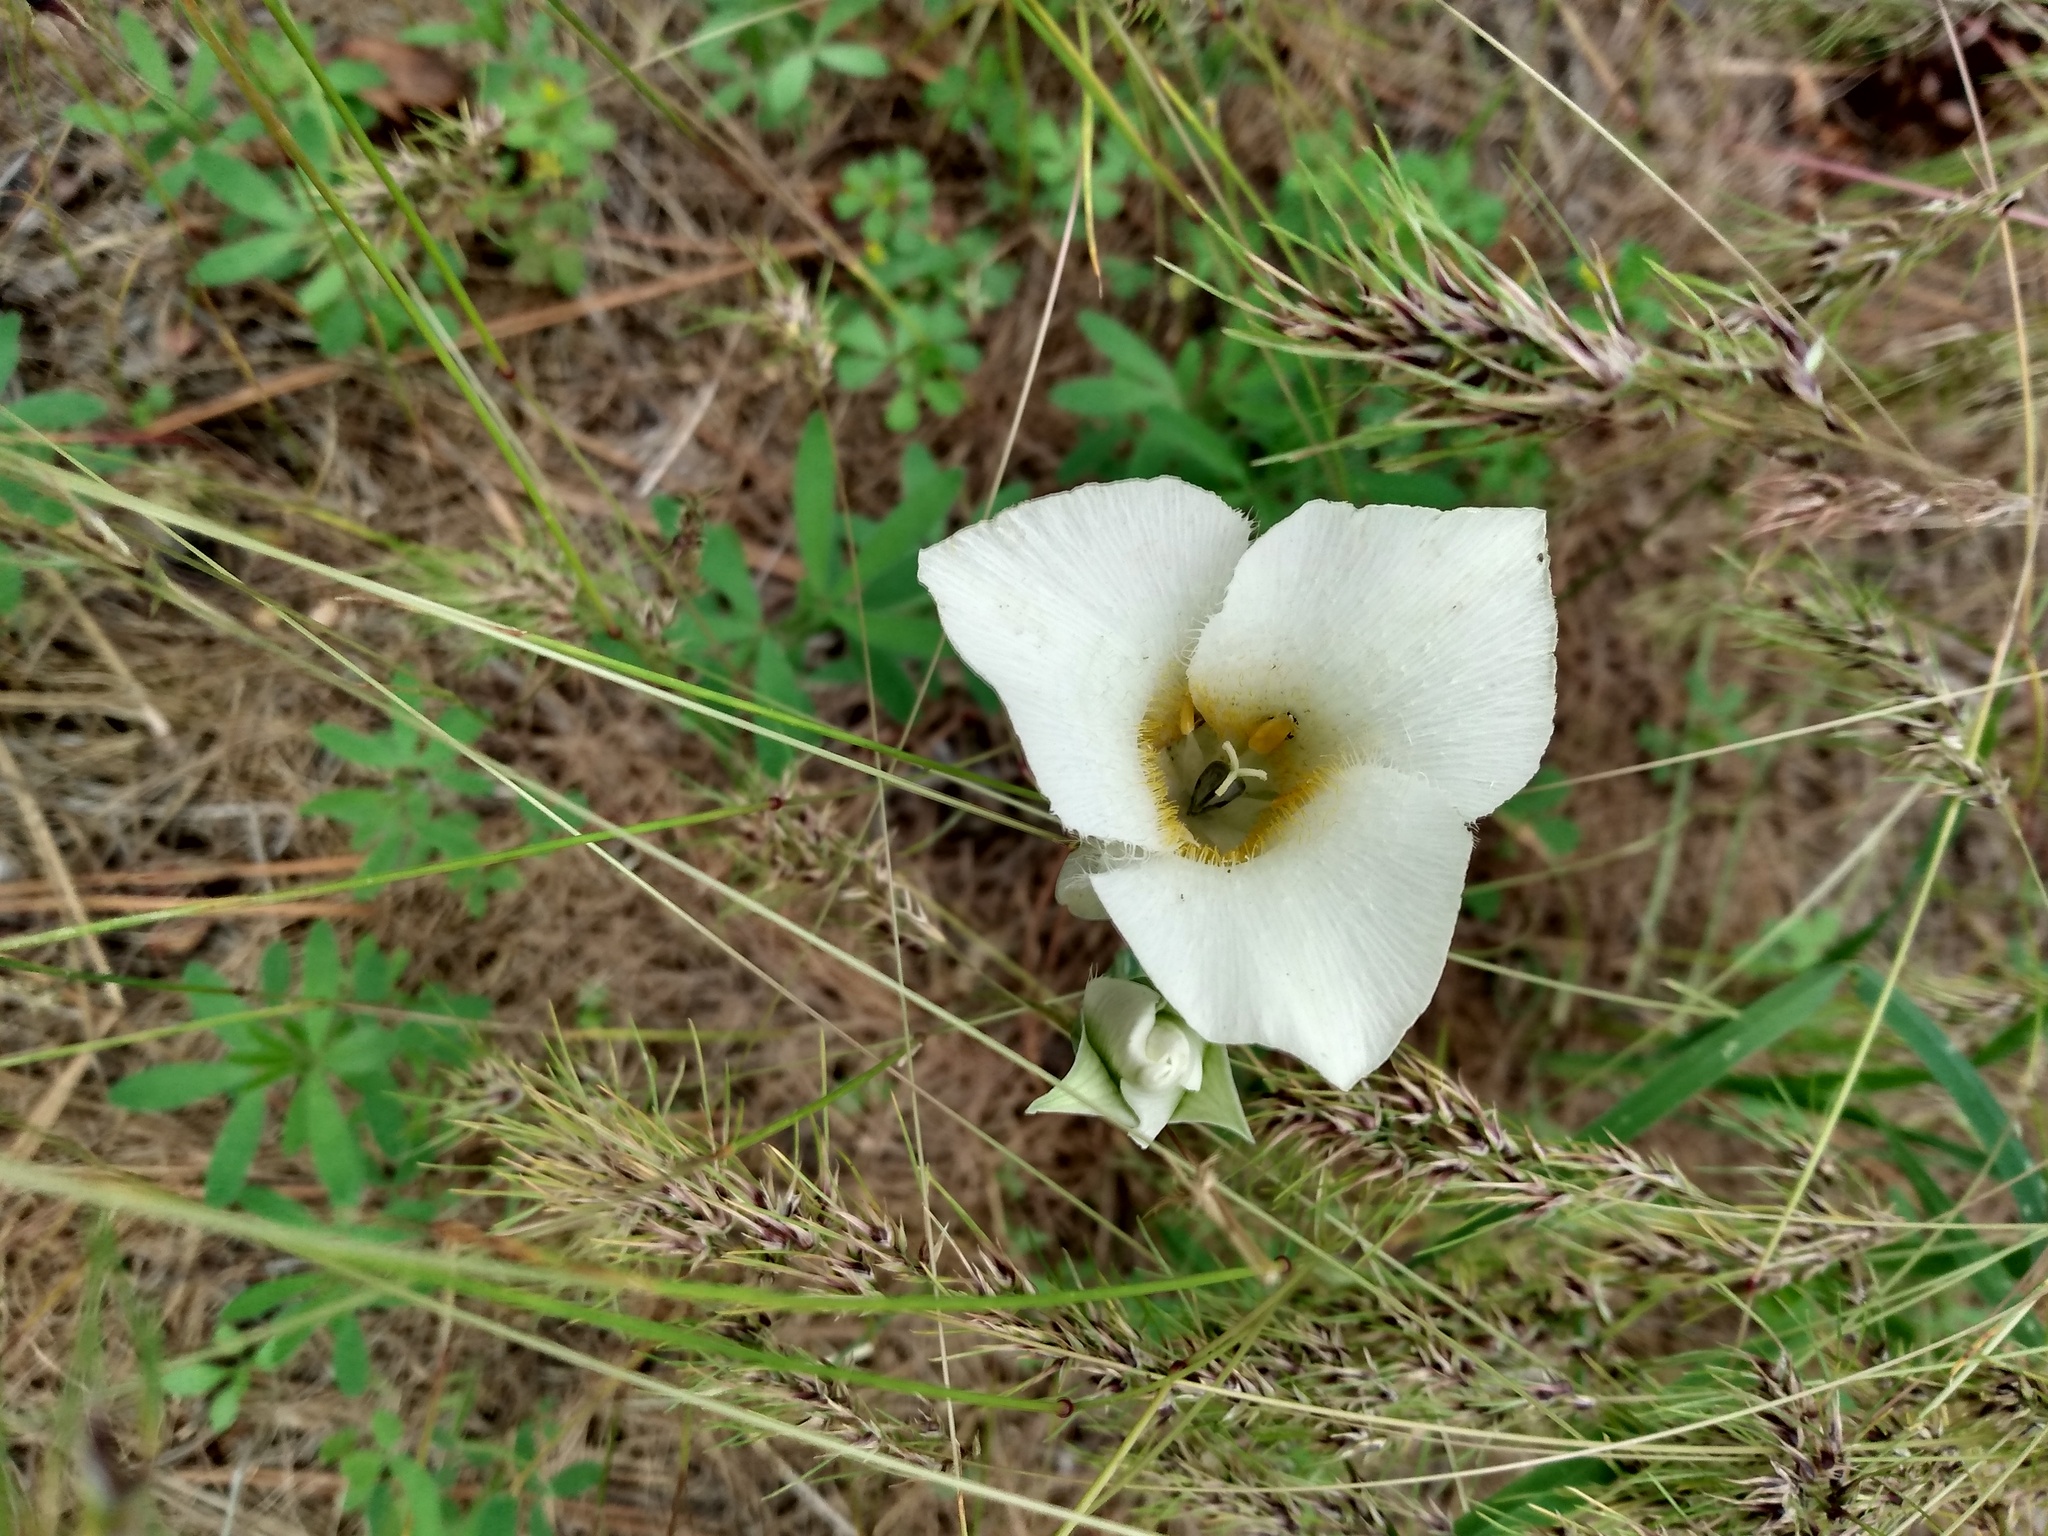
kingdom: Plantae
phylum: Tracheophyta
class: Liliopsida
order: Liliales
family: Liliaceae
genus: Calochortus
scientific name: Calochortus apiculatus
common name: Baker's mariposa lily
